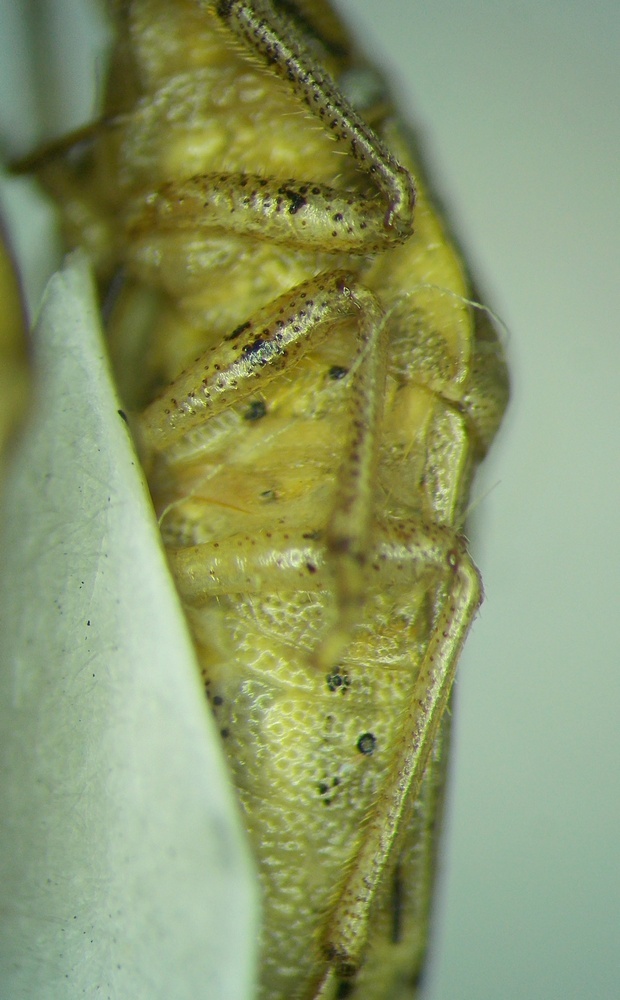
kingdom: Animalia
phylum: Arthropoda
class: Insecta
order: Hemiptera
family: Pentatomidae
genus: Aelia
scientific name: Aelia acuminata
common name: Bishop's mitre
